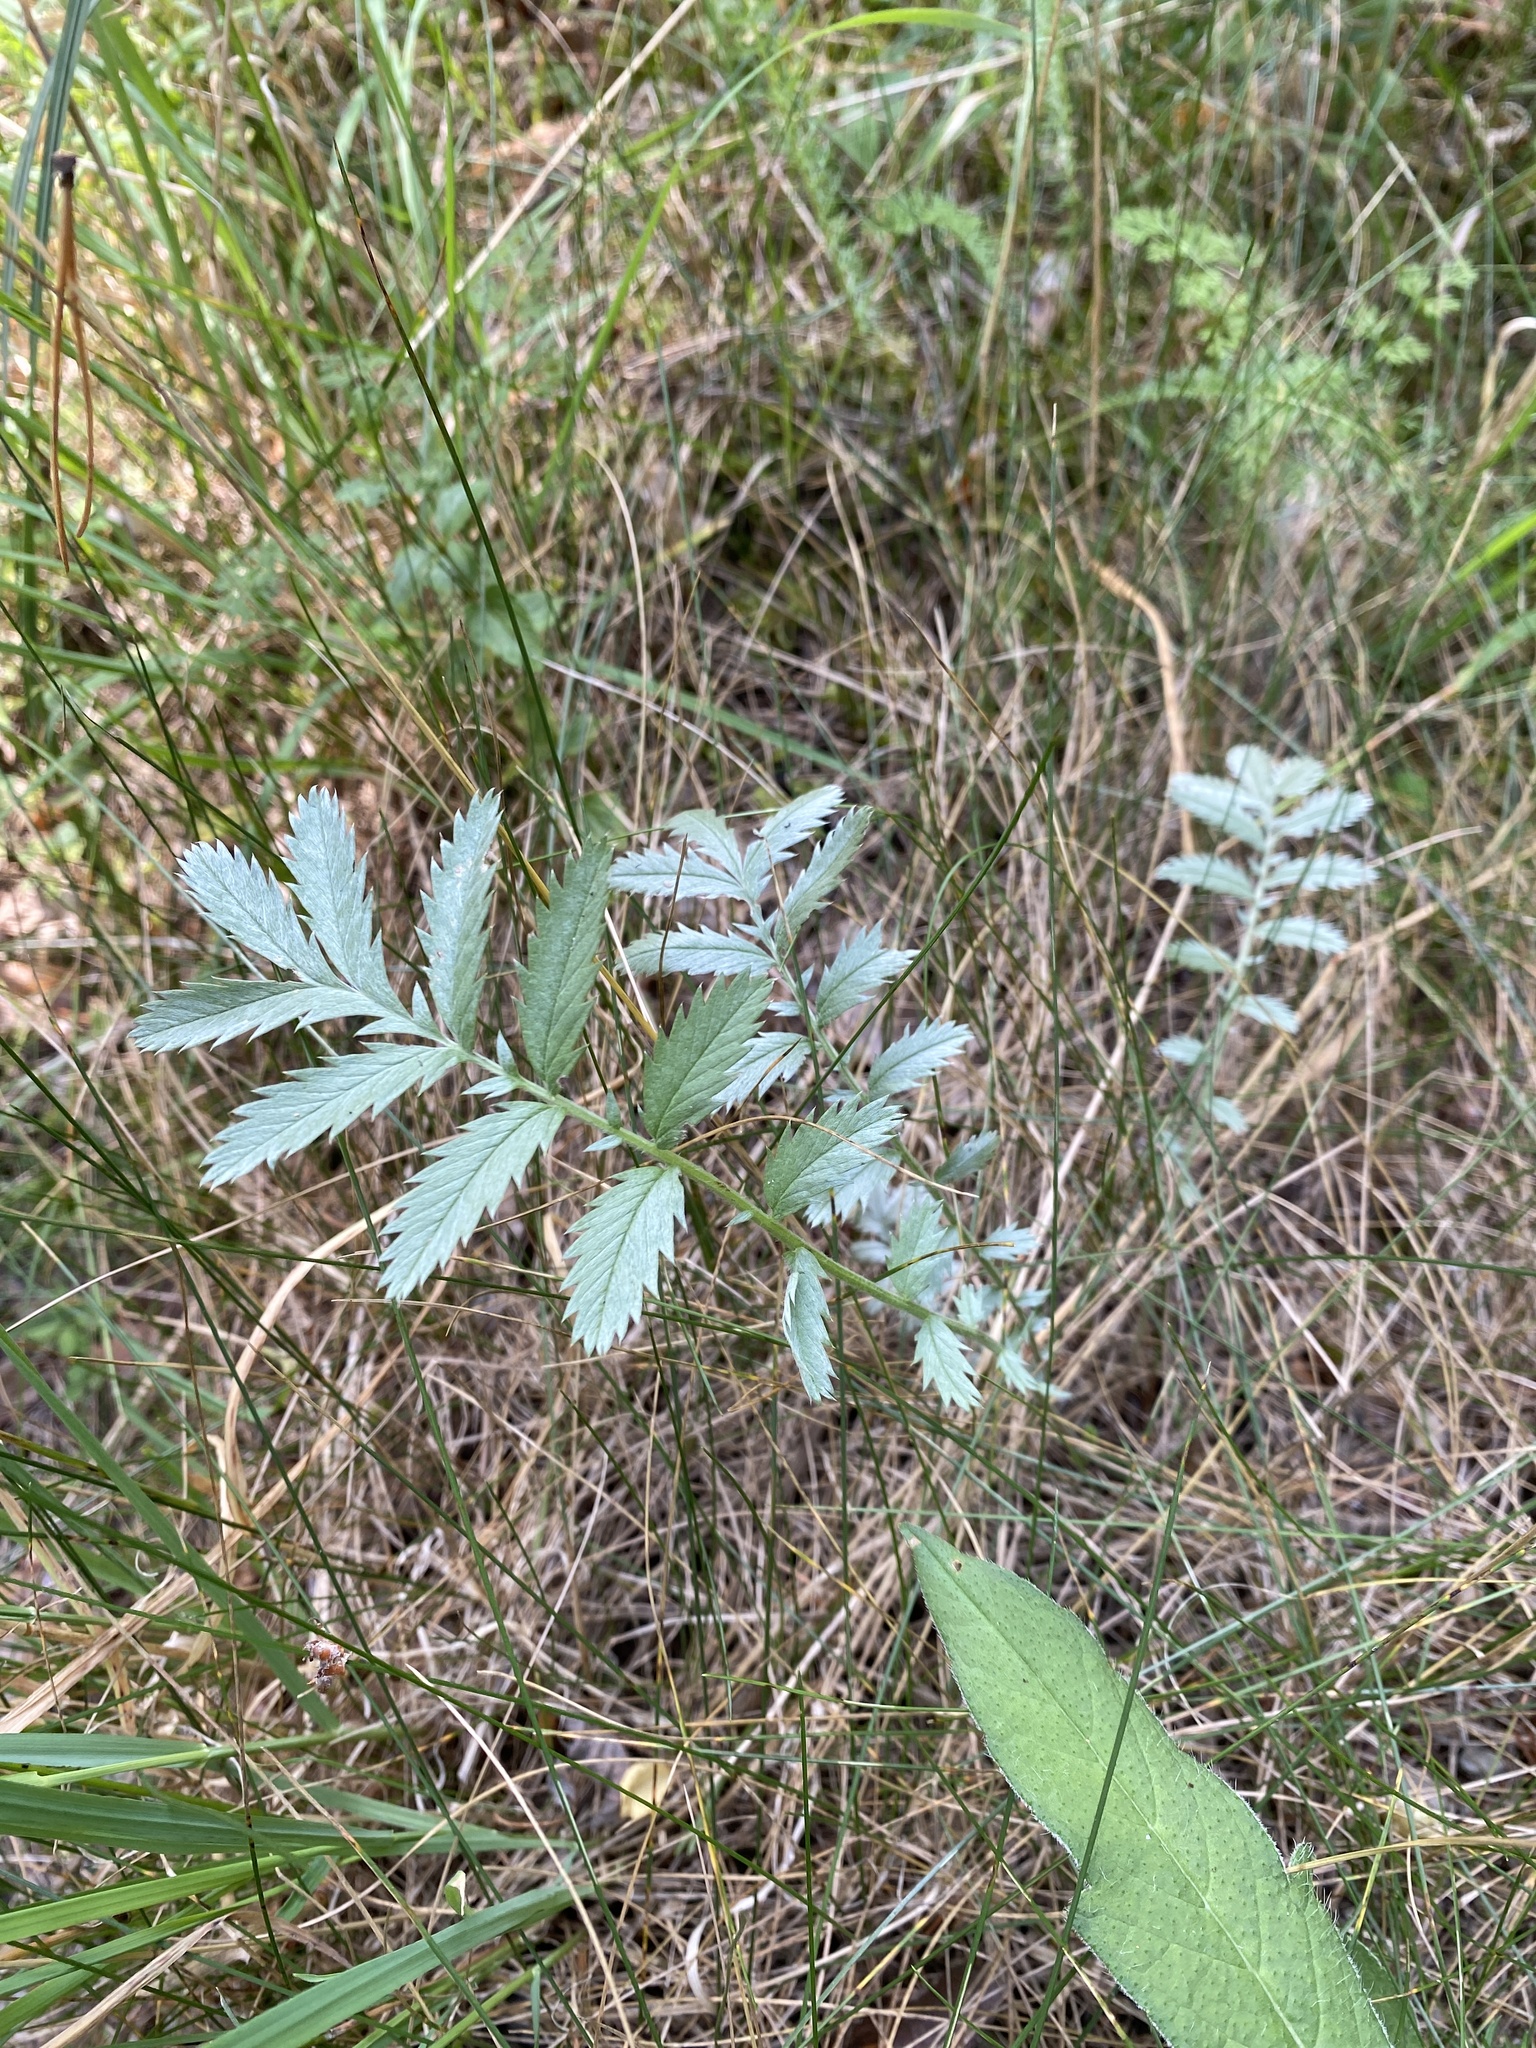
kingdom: Plantae
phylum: Tracheophyta
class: Magnoliopsida
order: Rosales
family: Rosaceae
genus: Argentina
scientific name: Argentina anserina
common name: Common silverweed
